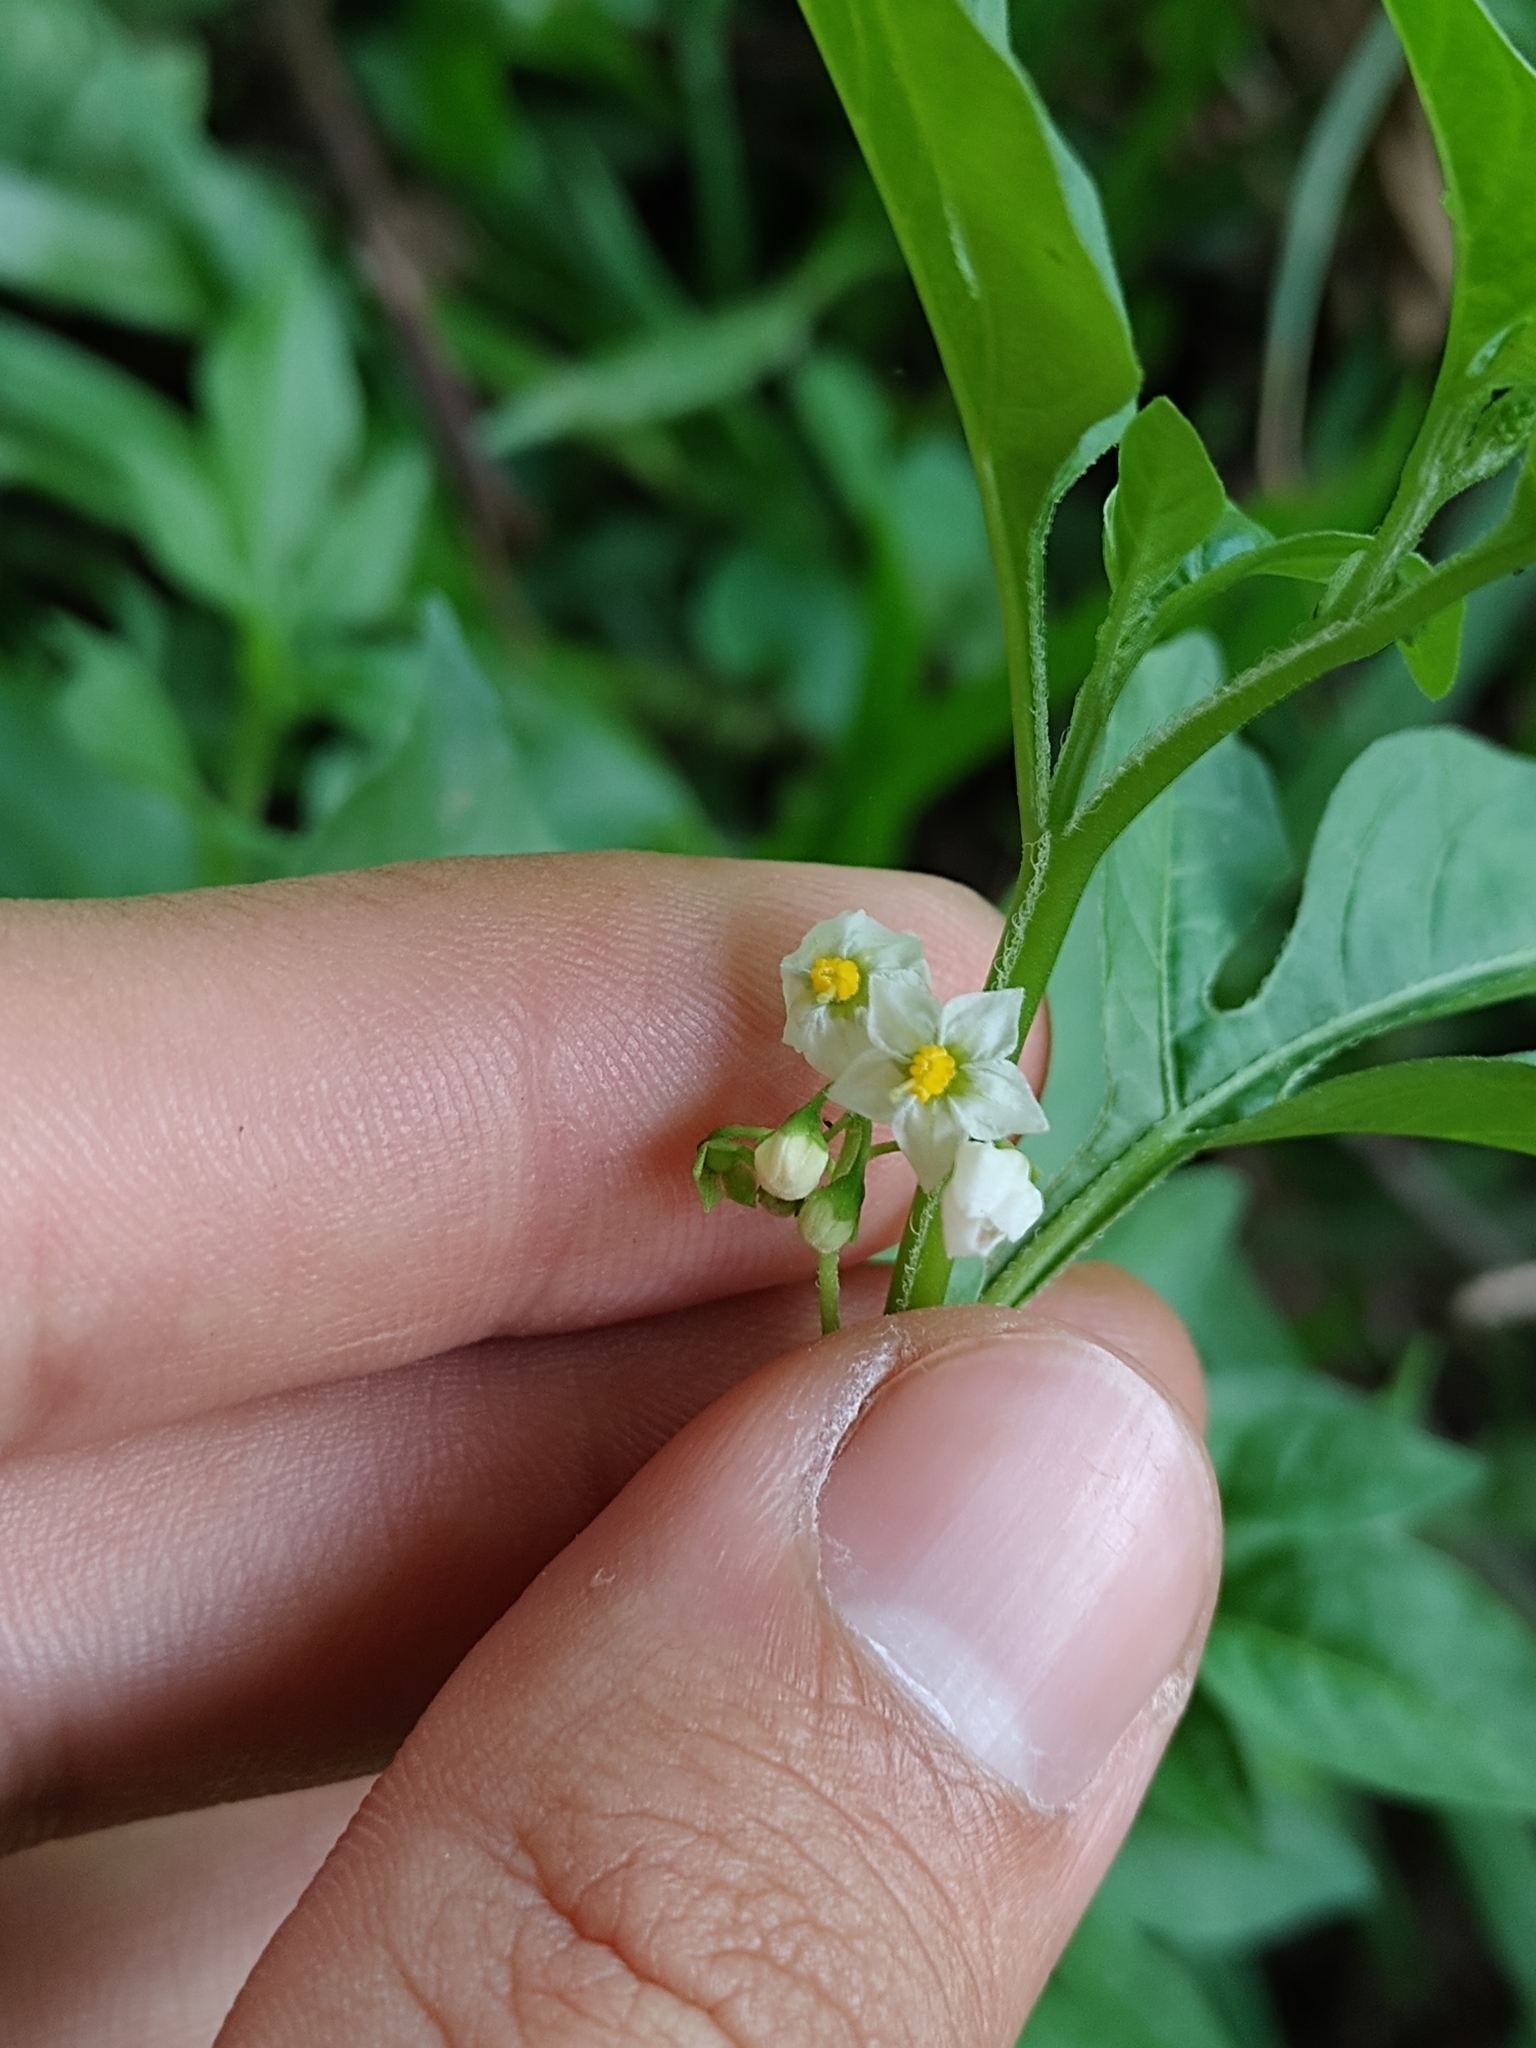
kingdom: Plantae
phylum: Tracheophyta
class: Magnoliopsida
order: Solanales
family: Solanaceae
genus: Solanum
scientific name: Solanum palitans
